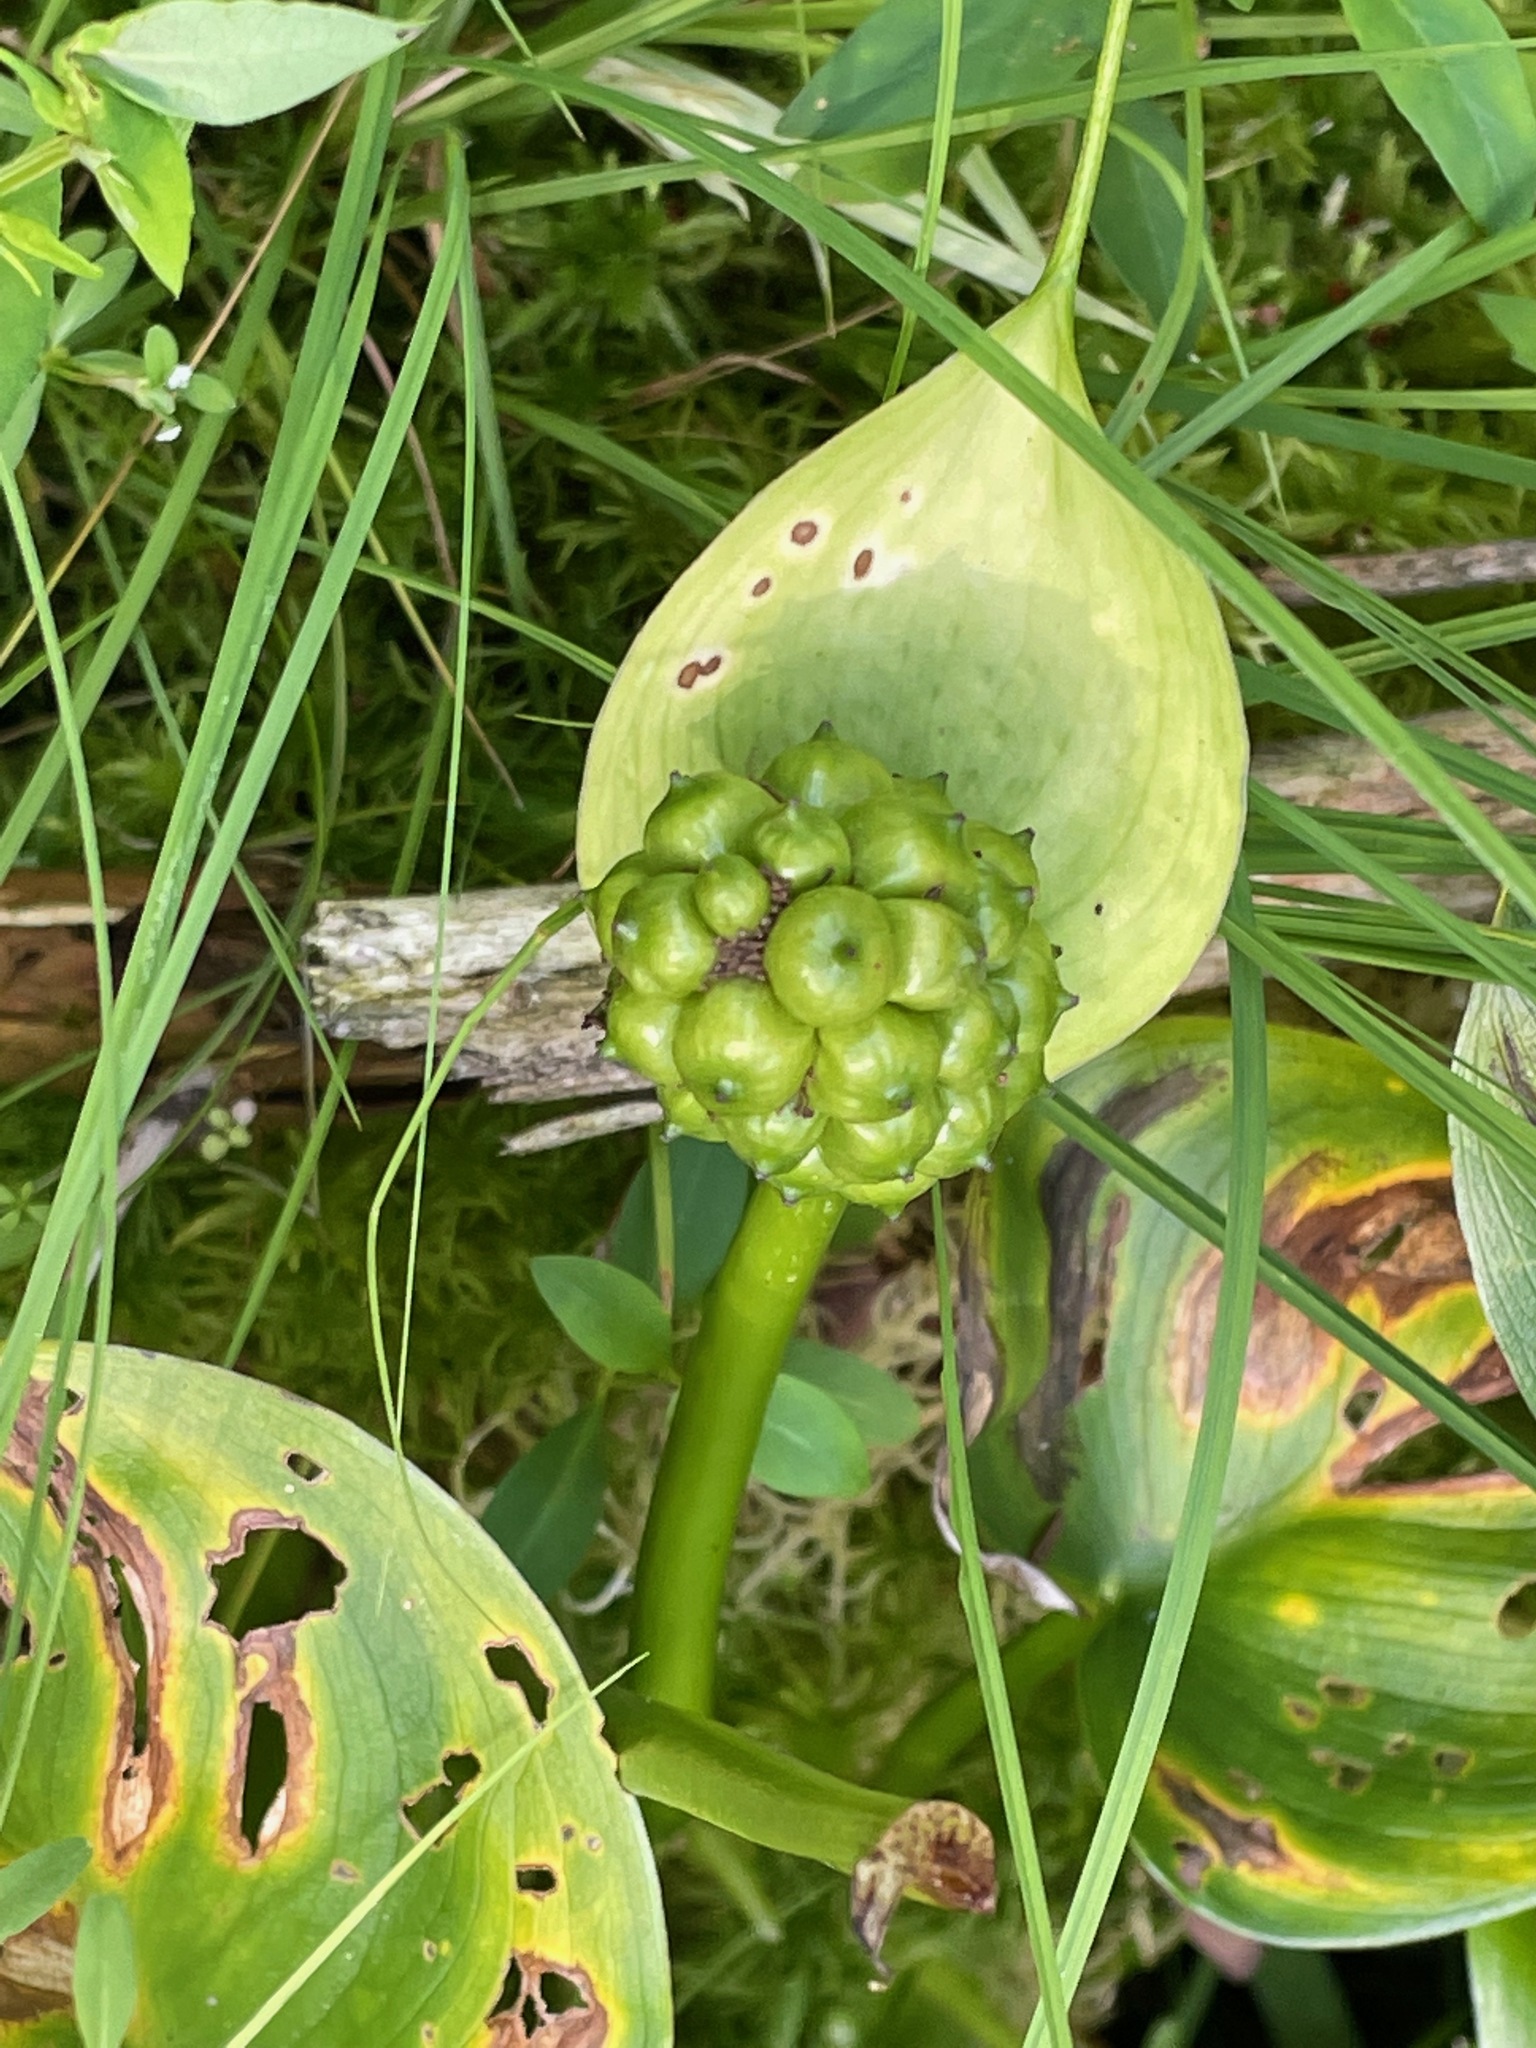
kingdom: Plantae
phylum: Tracheophyta
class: Liliopsida
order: Alismatales
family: Araceae
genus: Calla
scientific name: Calla palustris
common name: Bog arum
